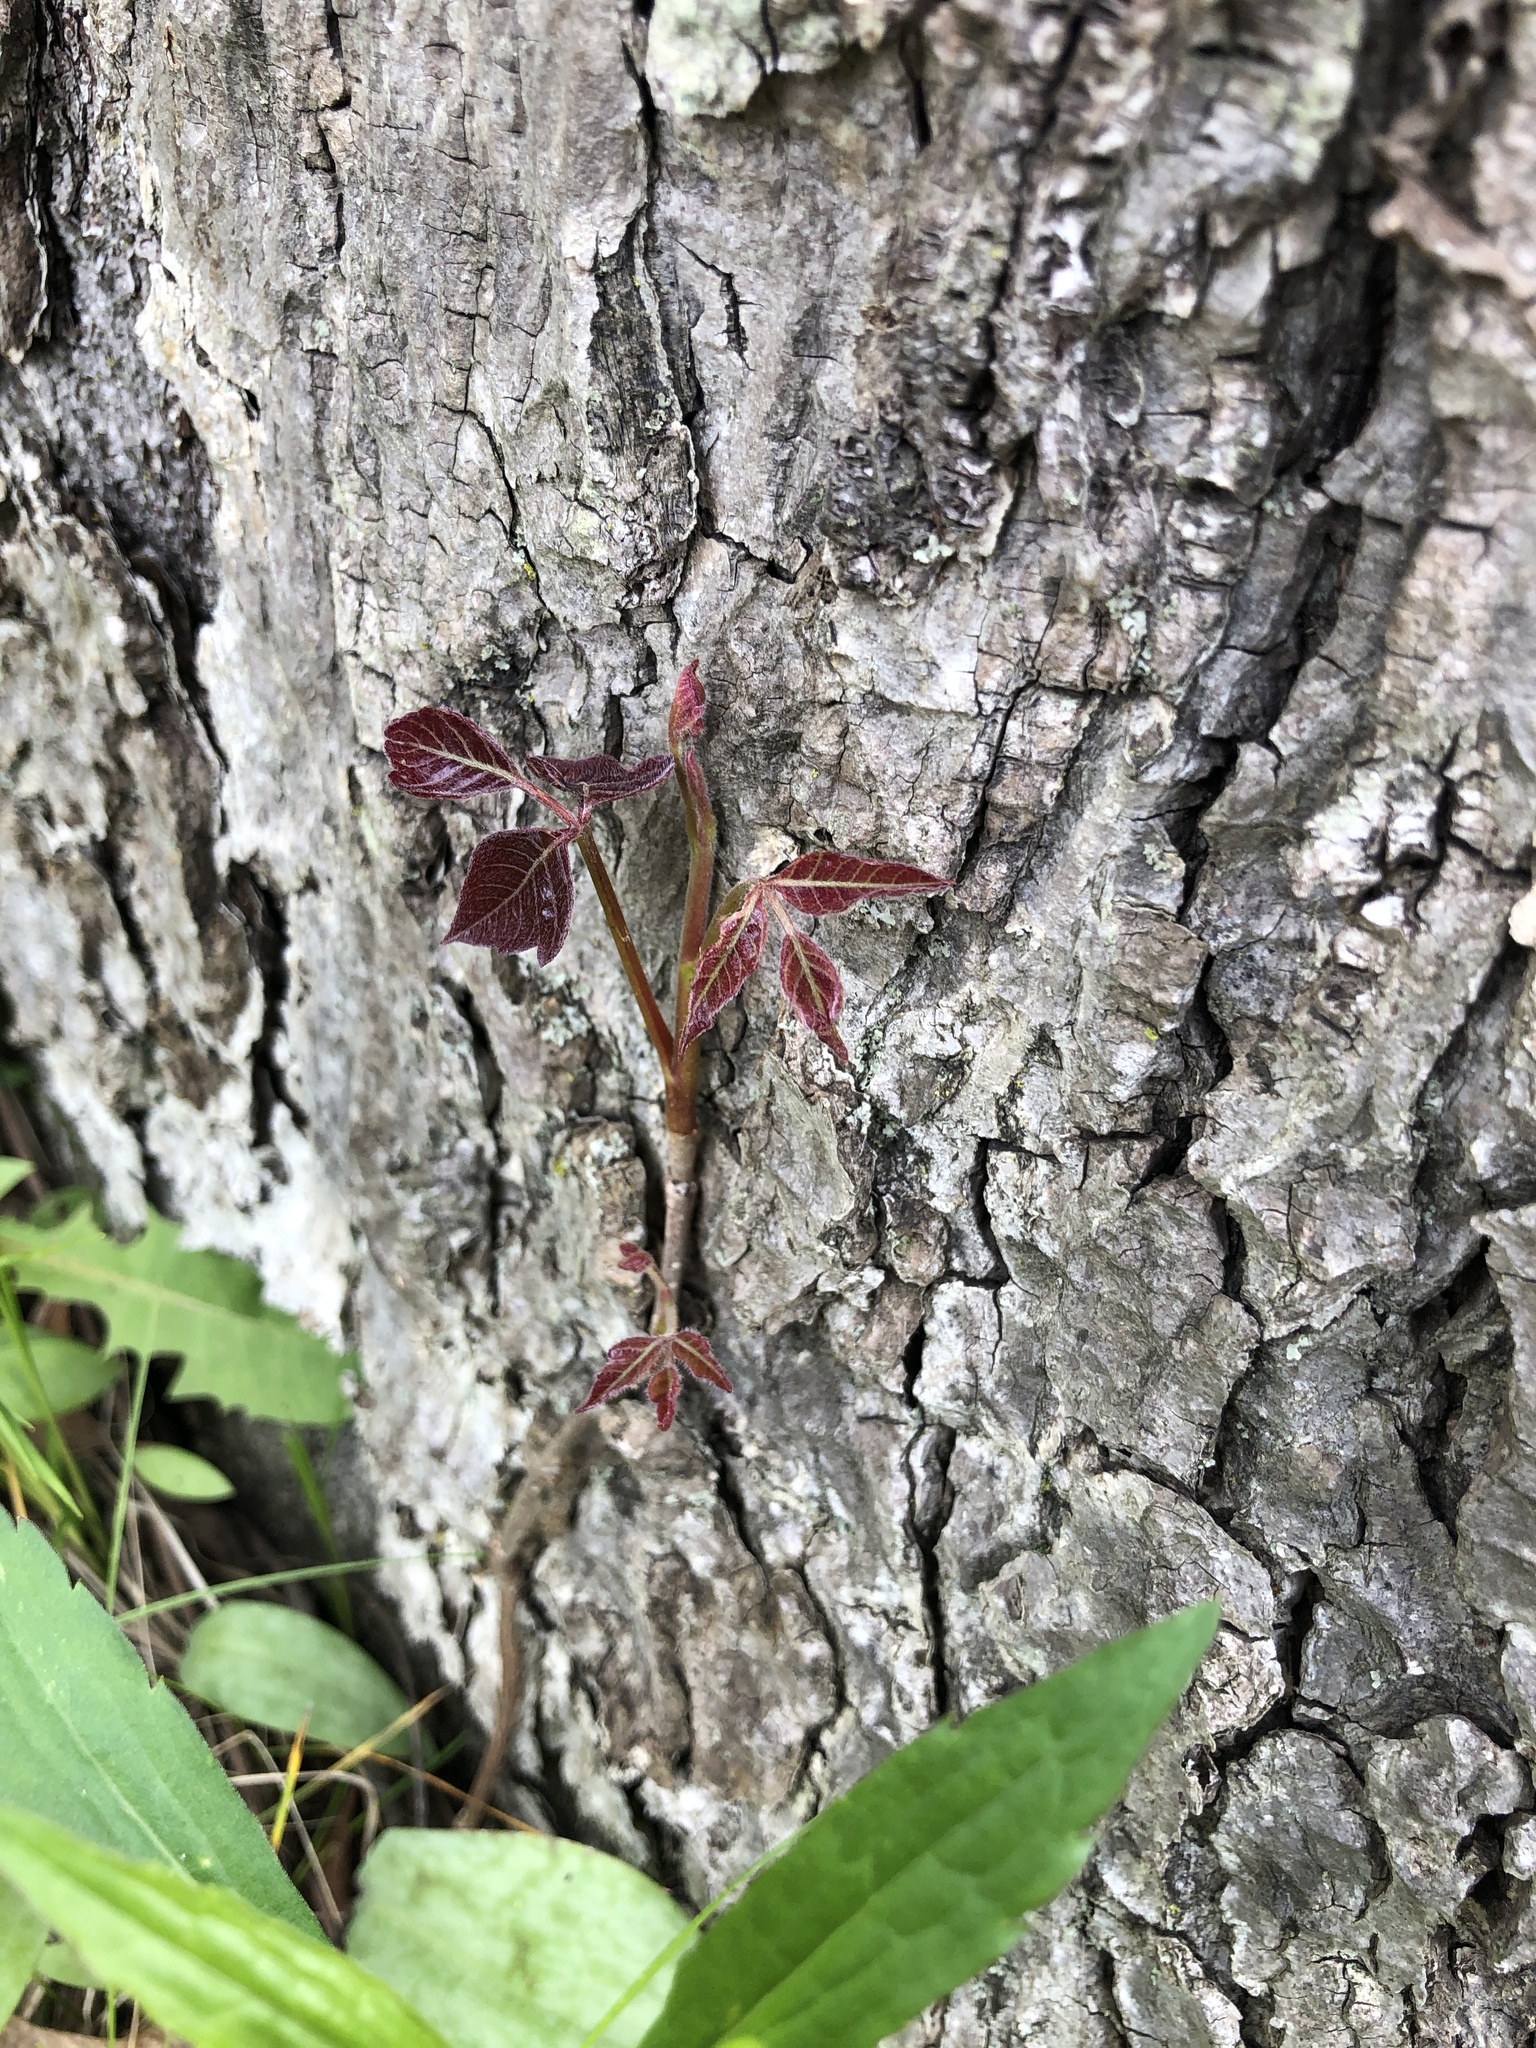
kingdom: Plantae
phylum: Tracheophyta
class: Magnoliopsida
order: Sapindales
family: Anacardiaceae
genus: Toxicodendron
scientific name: Toxicodendron radicans
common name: Poison ivy
